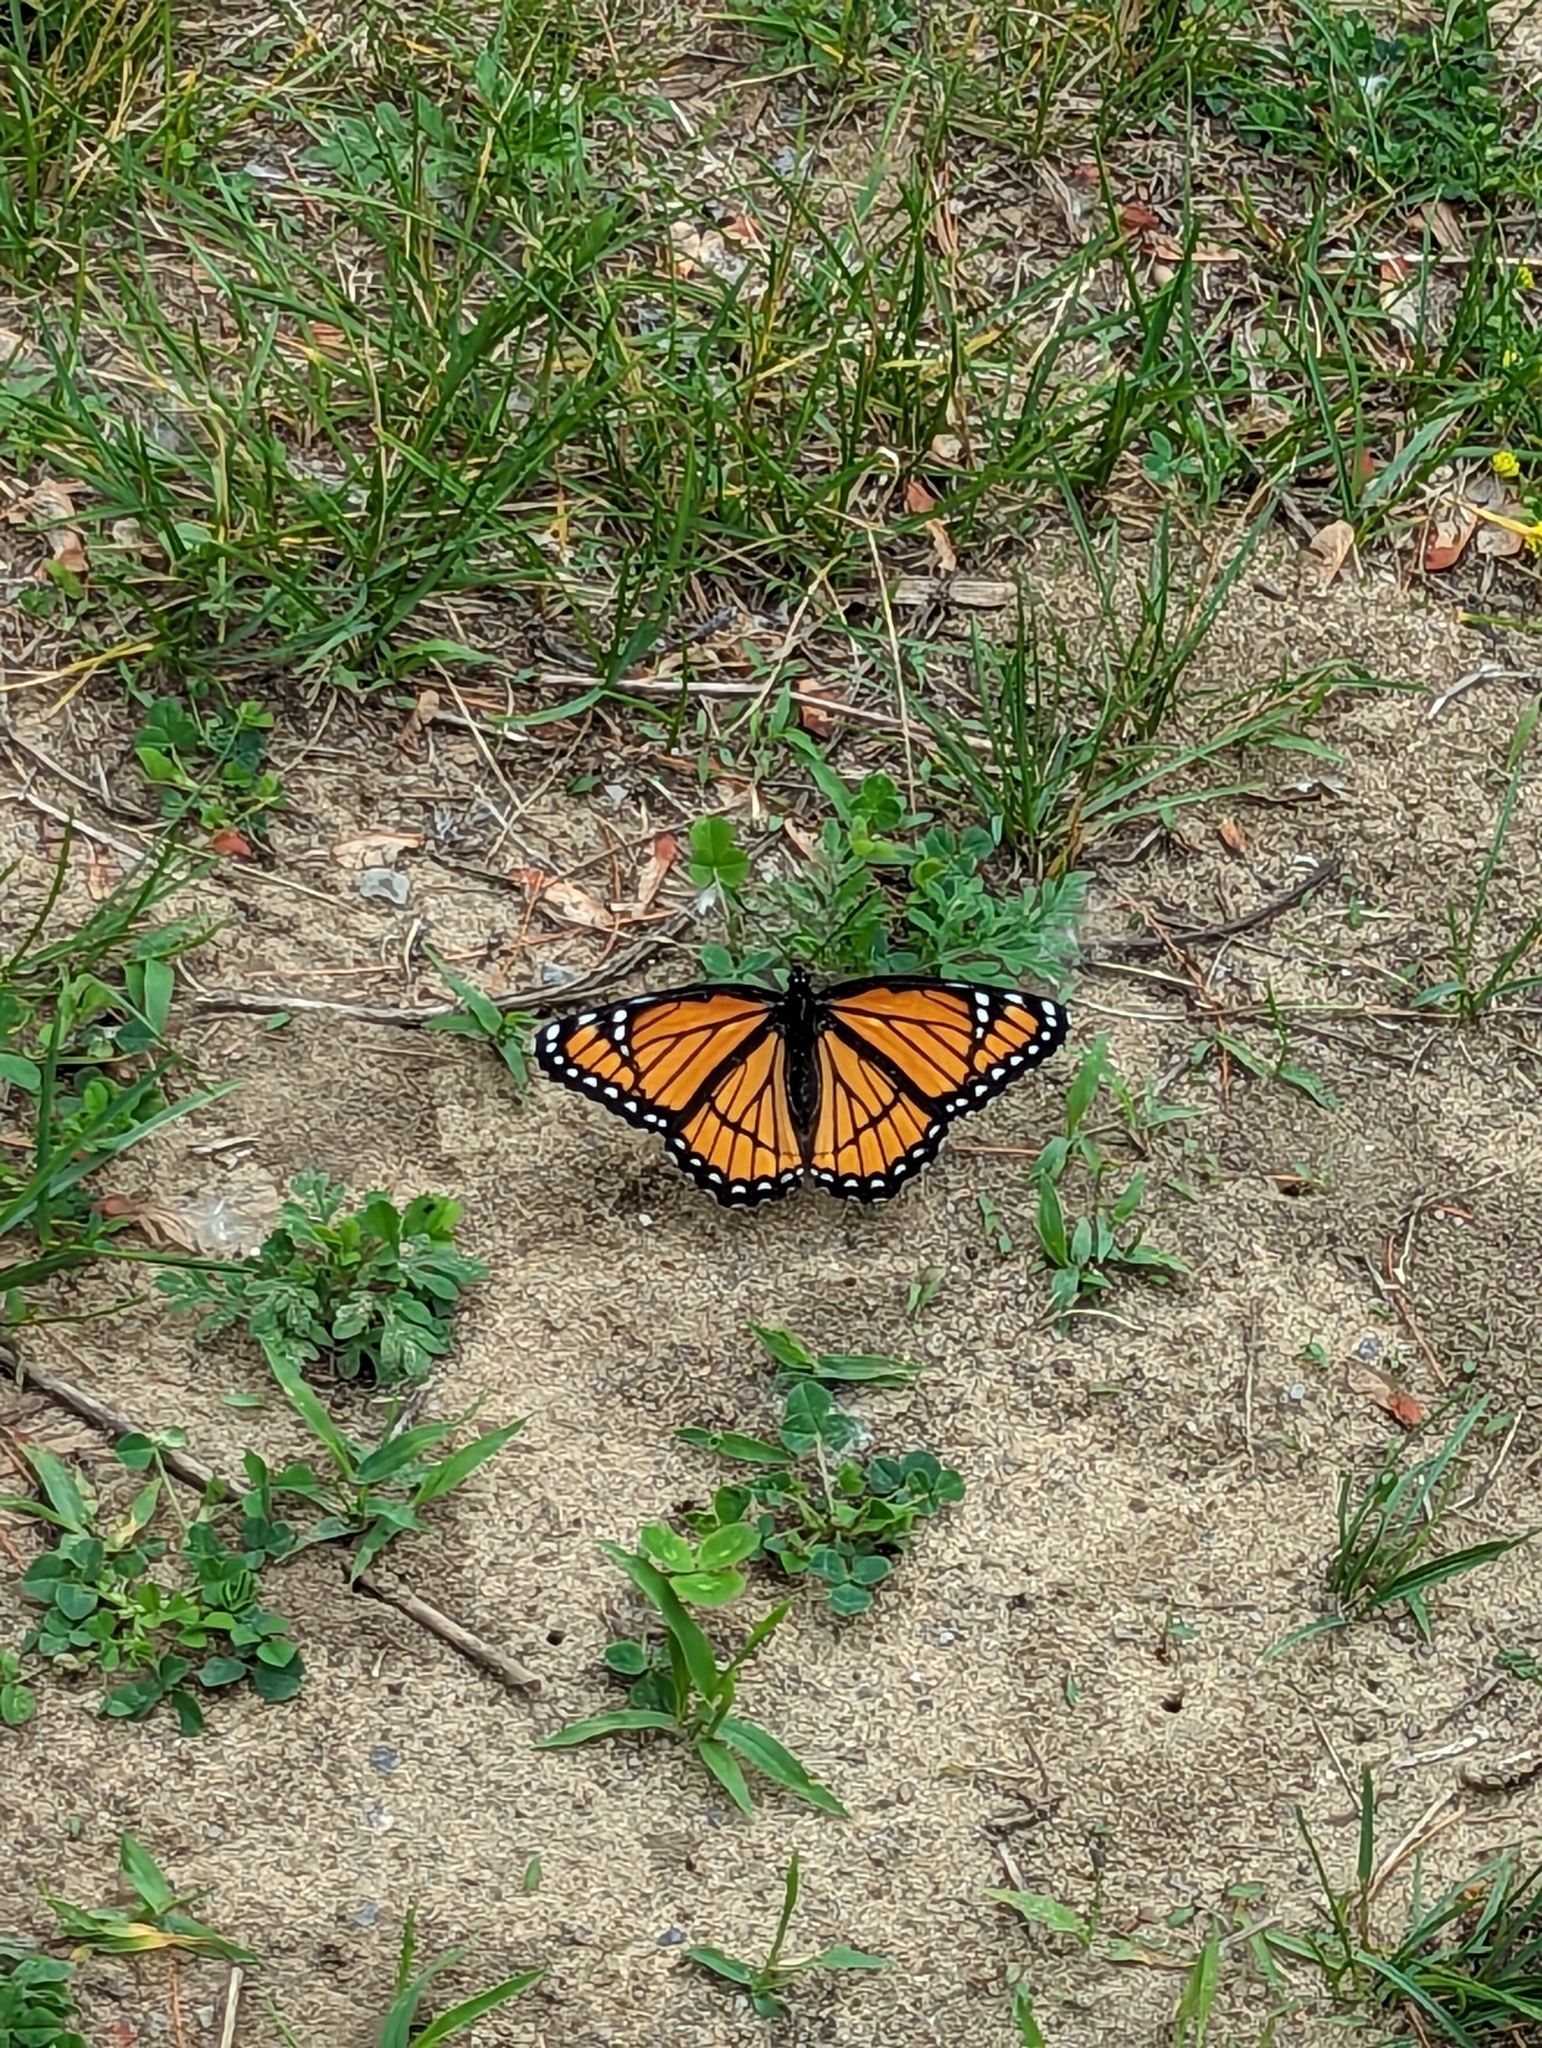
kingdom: Animalia
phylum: Arthropoda
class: Insecta
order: Lepidoptera
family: Nymphalidae
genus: Limenitis
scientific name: Limenitis archippus
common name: Viceroy
